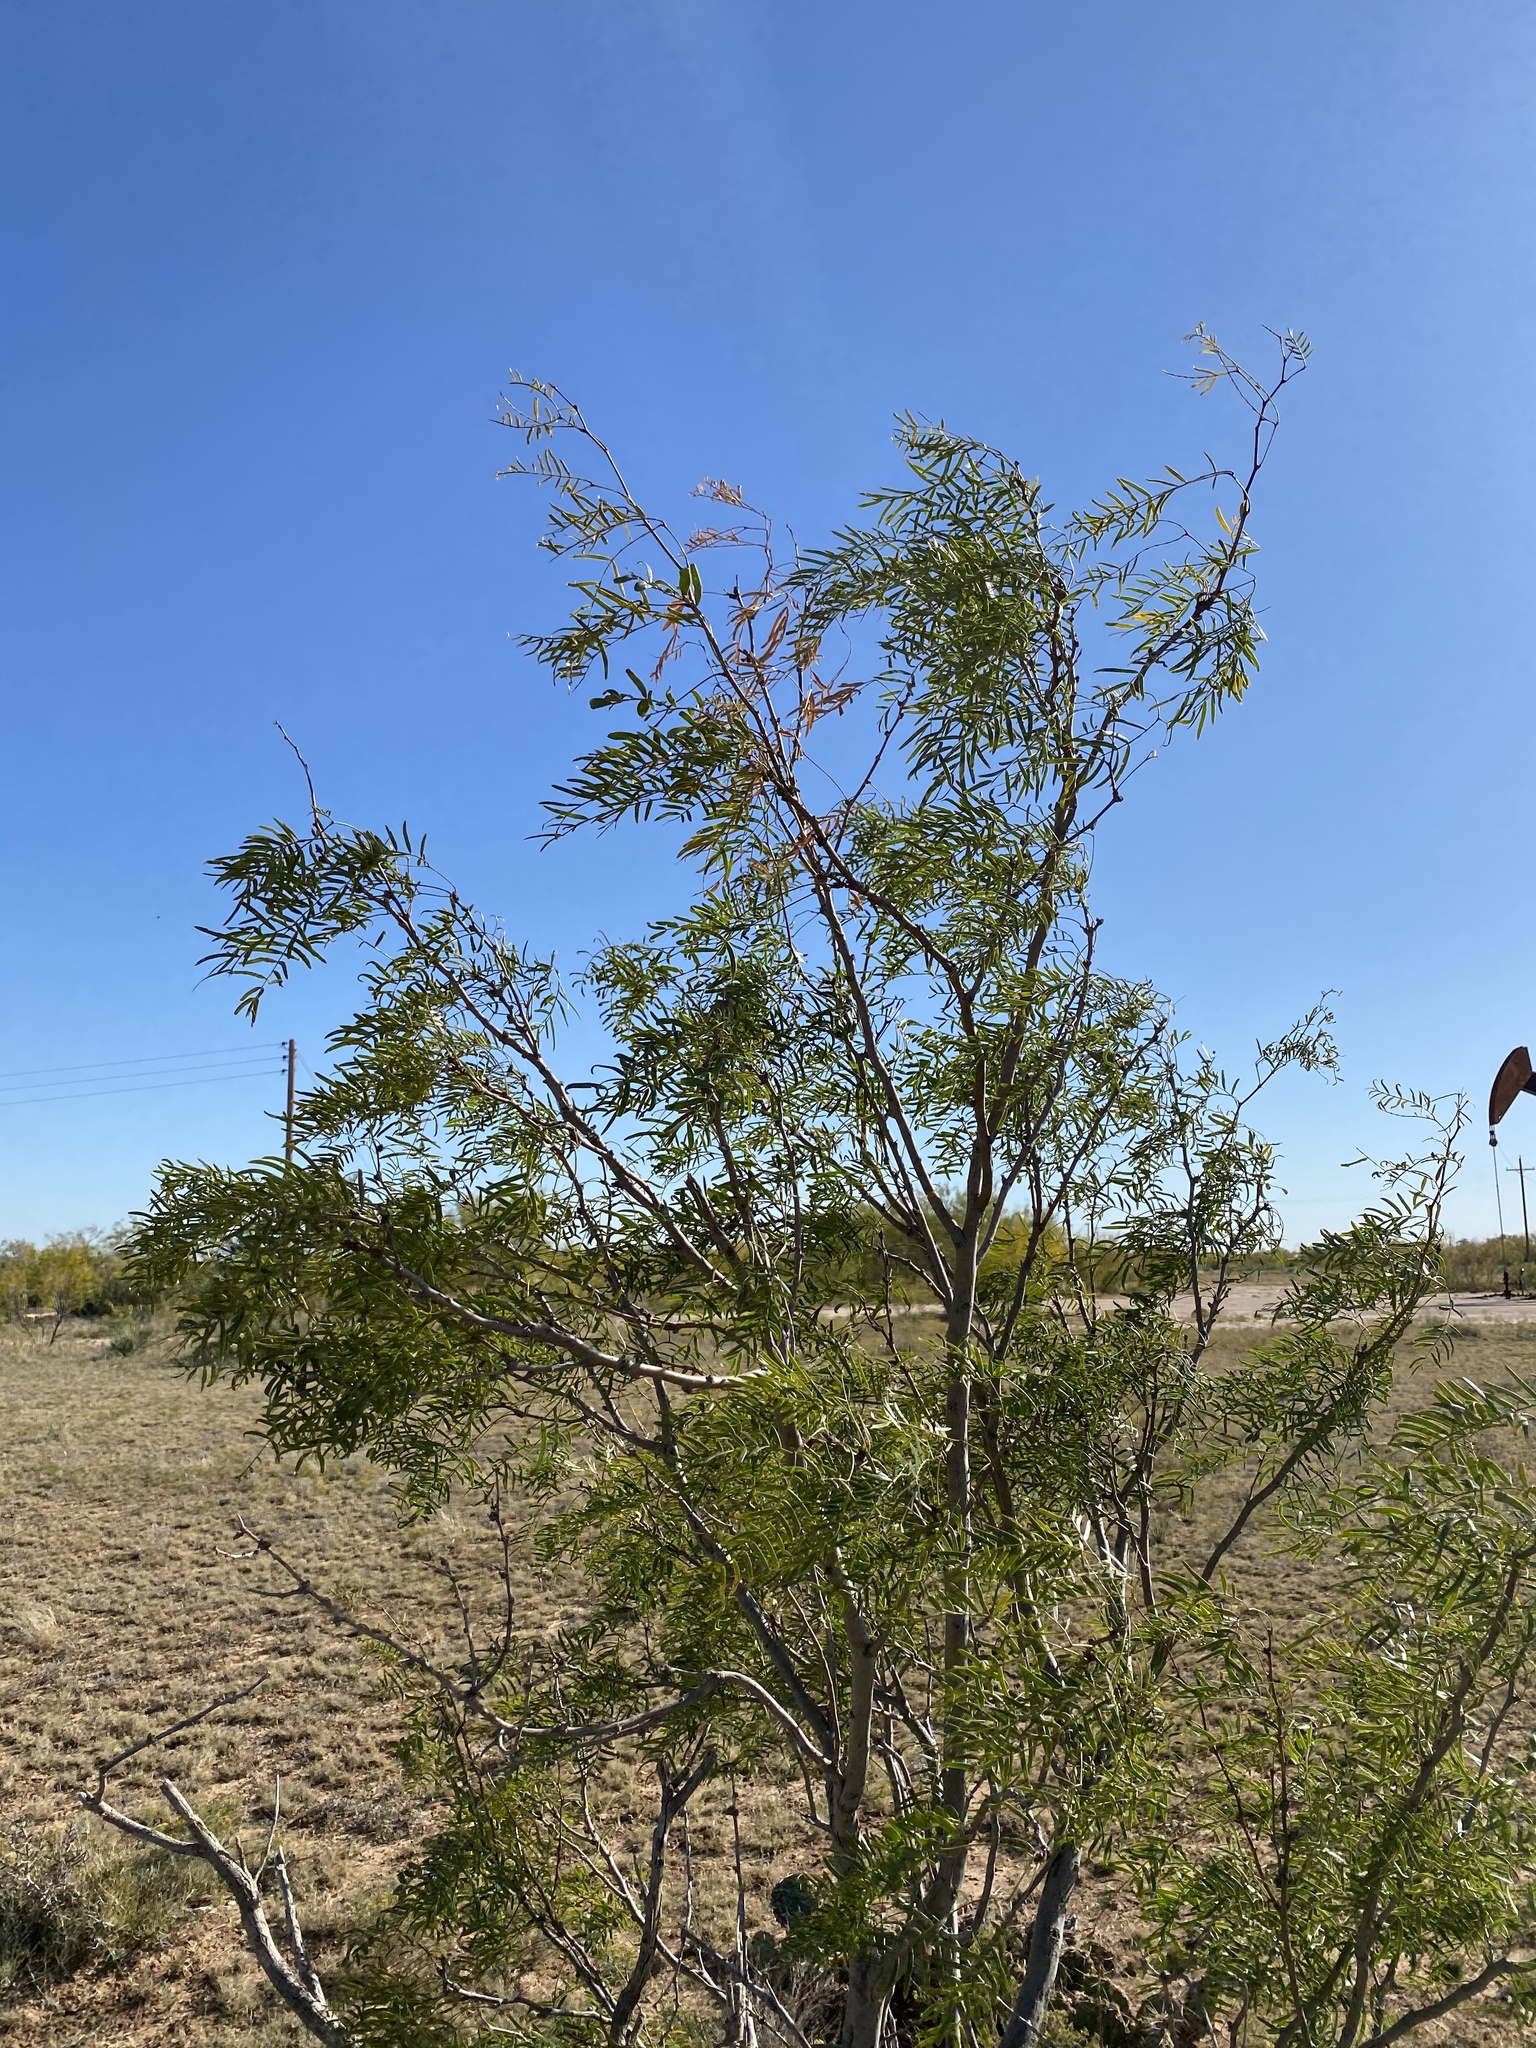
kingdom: Plantae
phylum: Tracheophyta
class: Magnoliopsida
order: Fabales
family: Fabaceae
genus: Prosopis
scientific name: Prosopis glandulosa
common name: Honey mesquite
